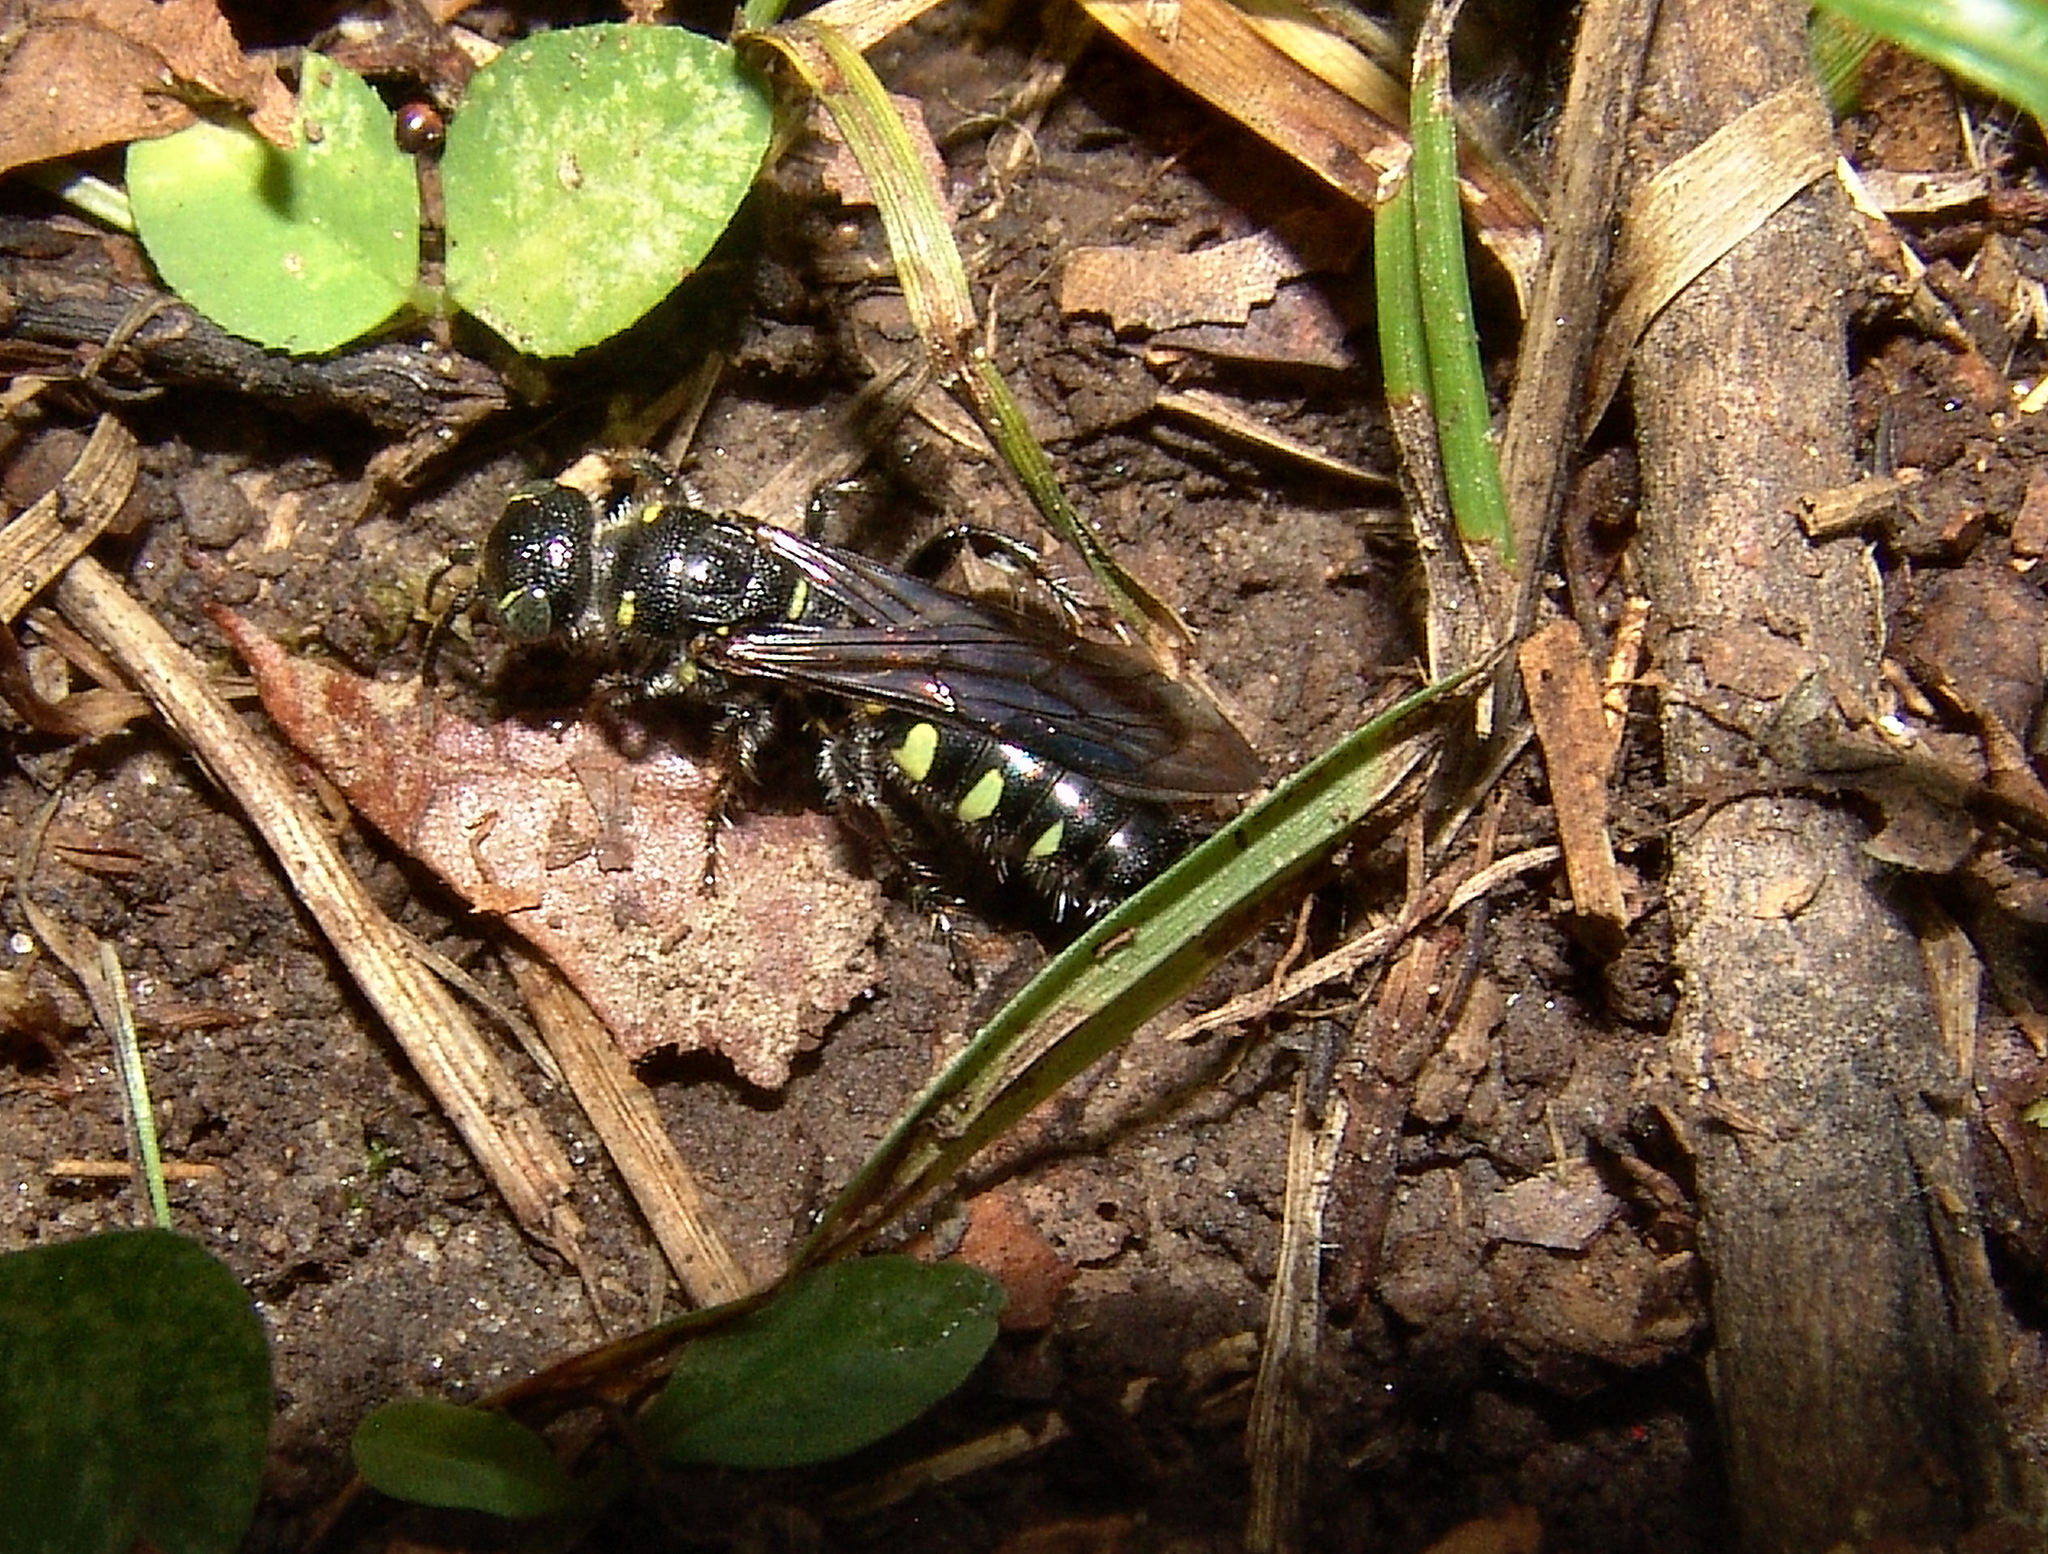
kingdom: Animalia
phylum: Arthropoda
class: Insecta
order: Hymenoptera
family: Tiphiidae
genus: Myzinum
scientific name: Myzinum obscurum
